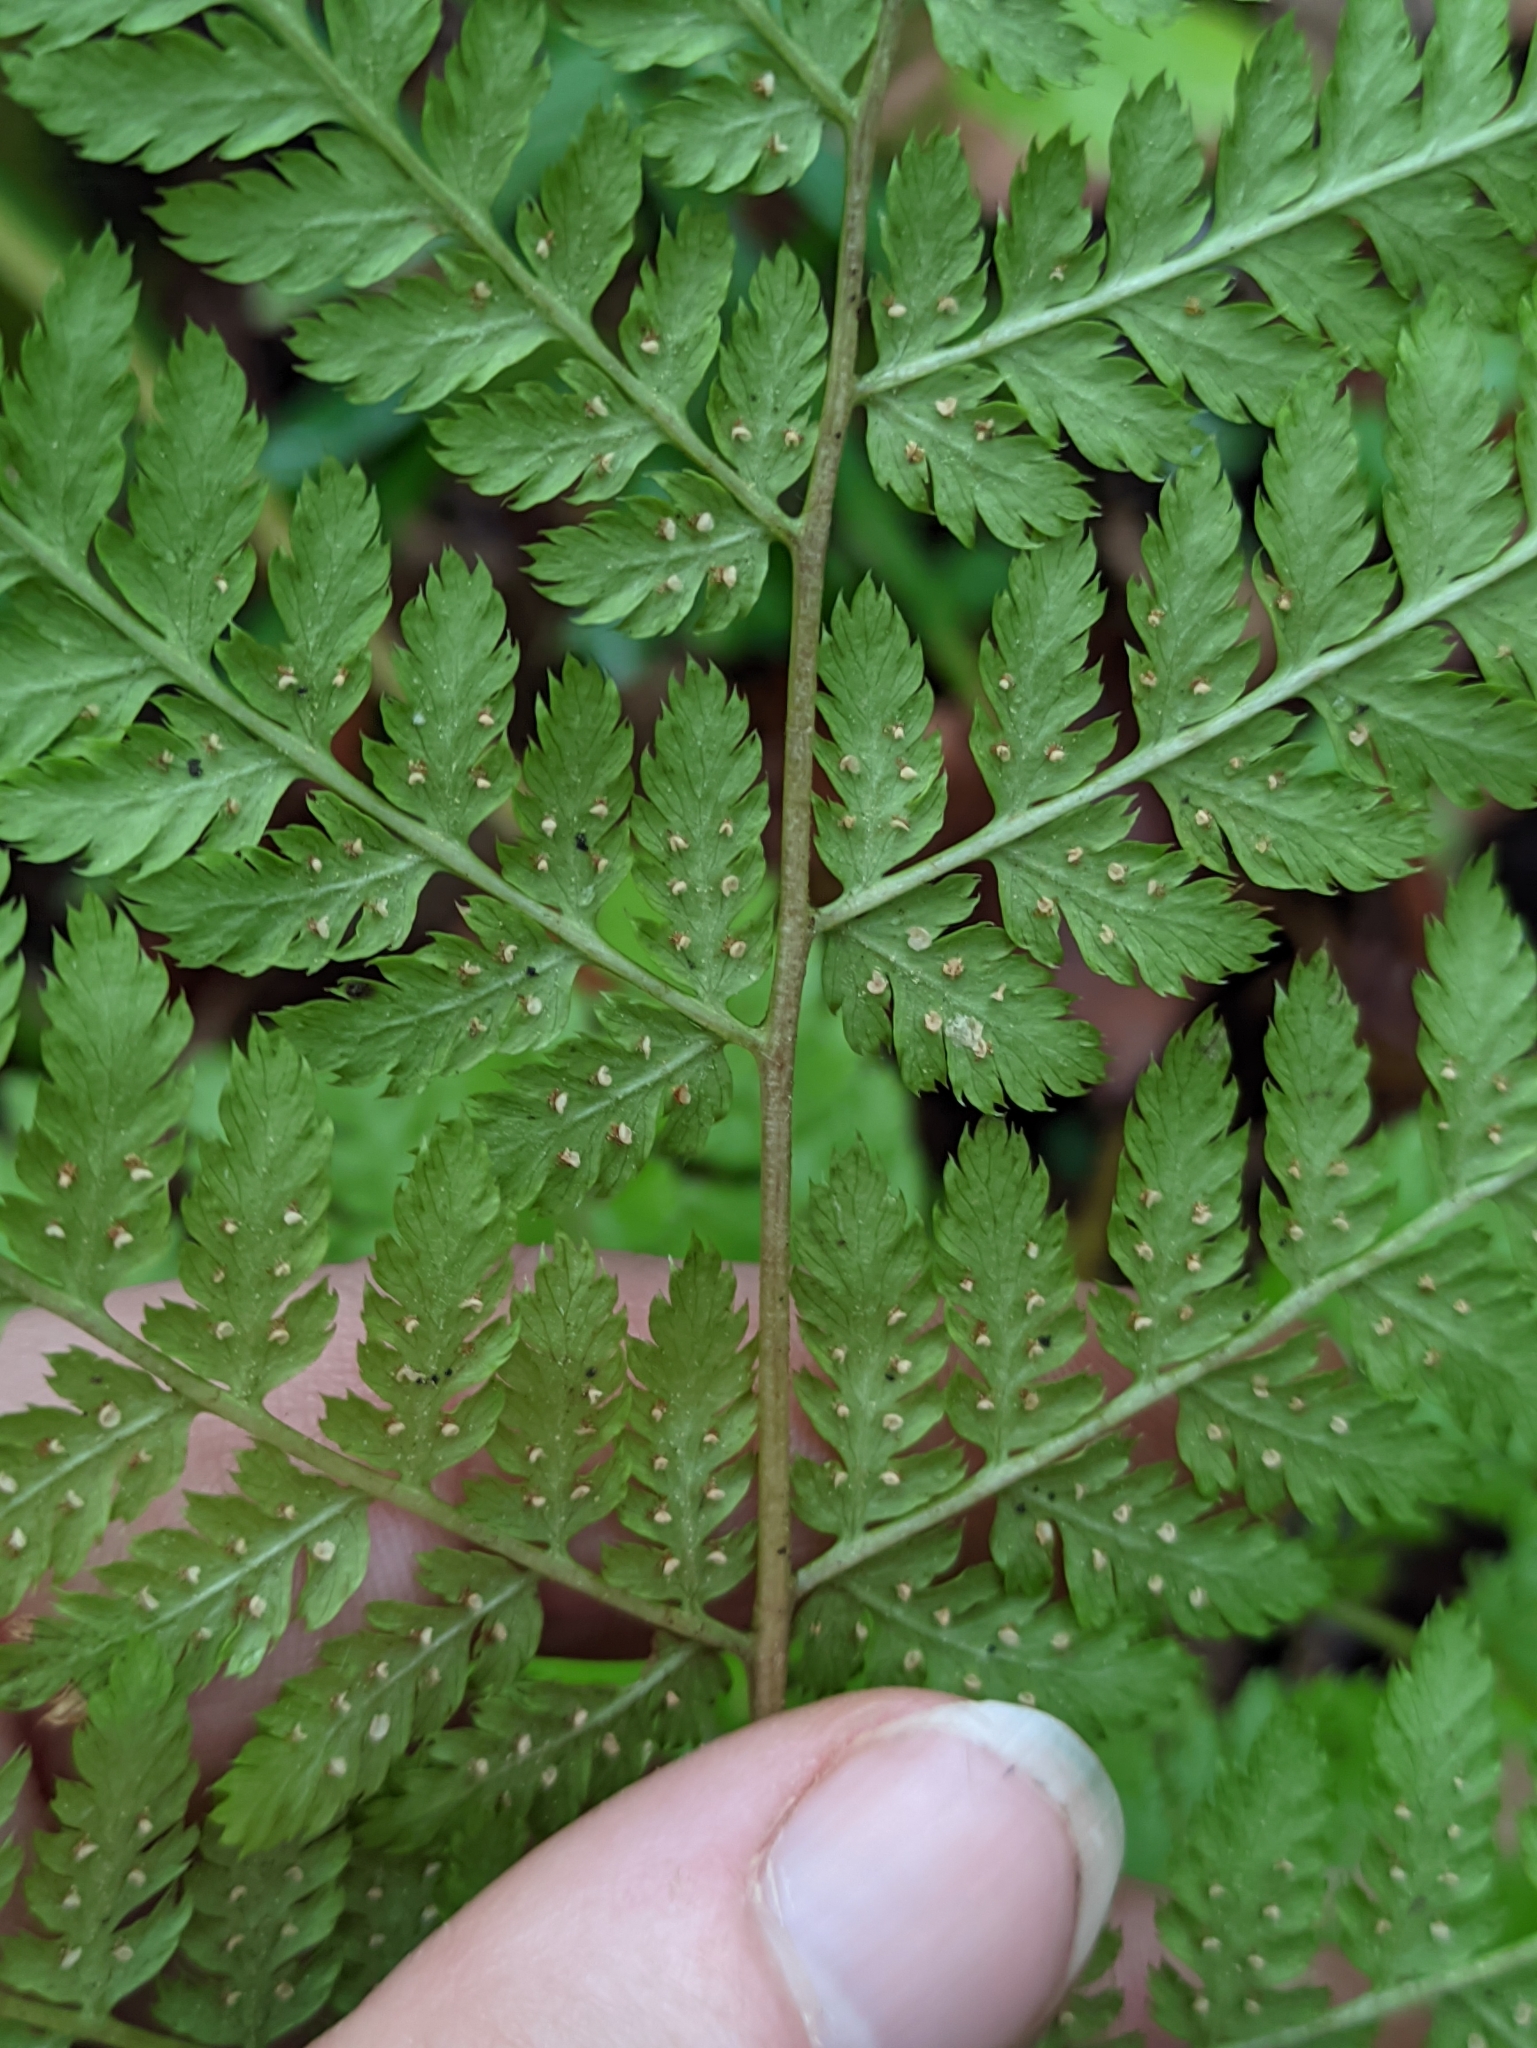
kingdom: Plantae
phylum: Tracheophyta
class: Polypodiopsida
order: Polypodiales
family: Dryopteridaceae
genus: Dryopteris
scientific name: Dryopteris expansa
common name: Northern buckler fern
